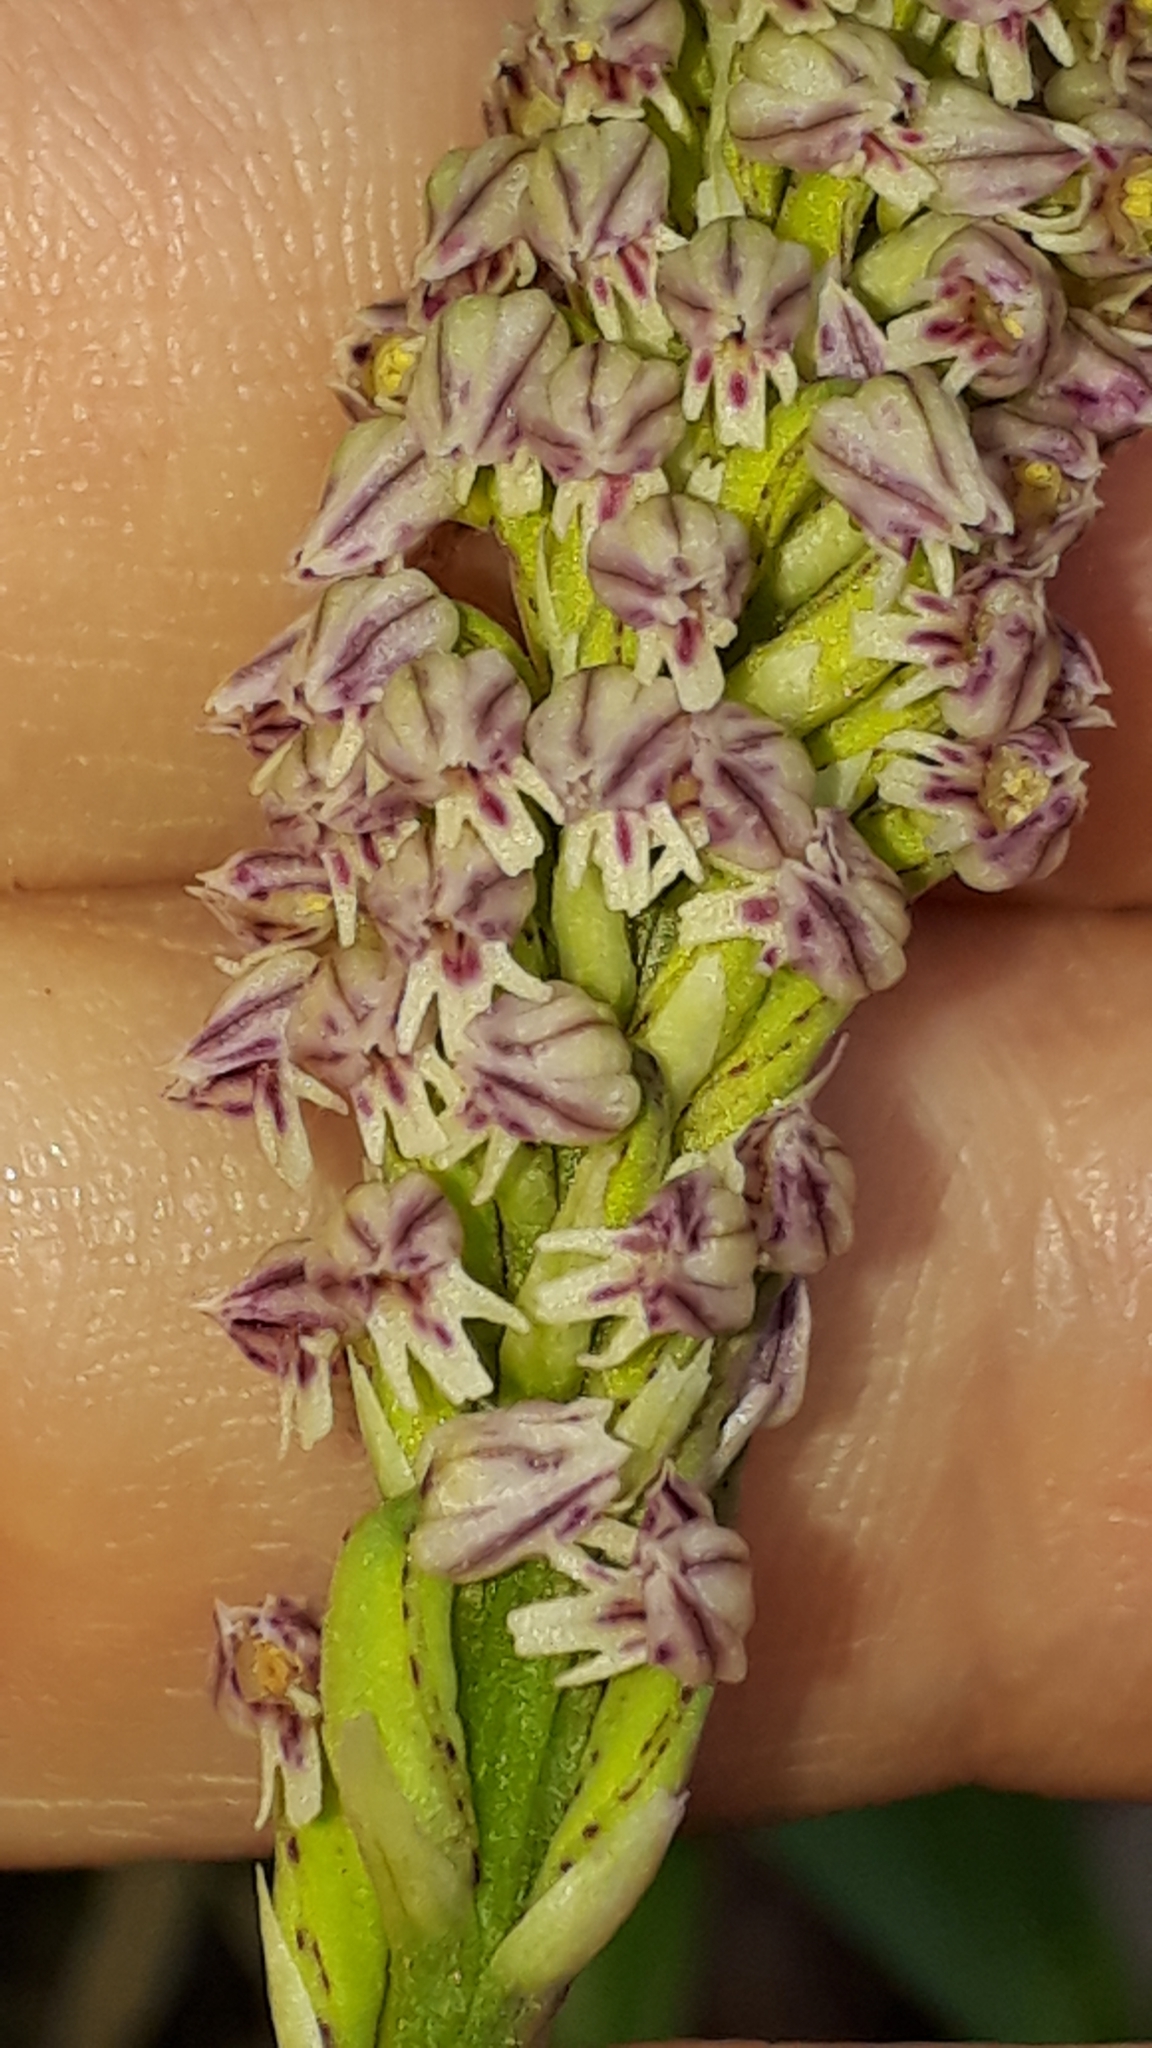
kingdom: Plantae
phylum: Tracheophyta
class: Liliopsida
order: Asparagales
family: Orchidaceae
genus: Neotinea
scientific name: Neotinea maculata
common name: Dense-flowered orchid
